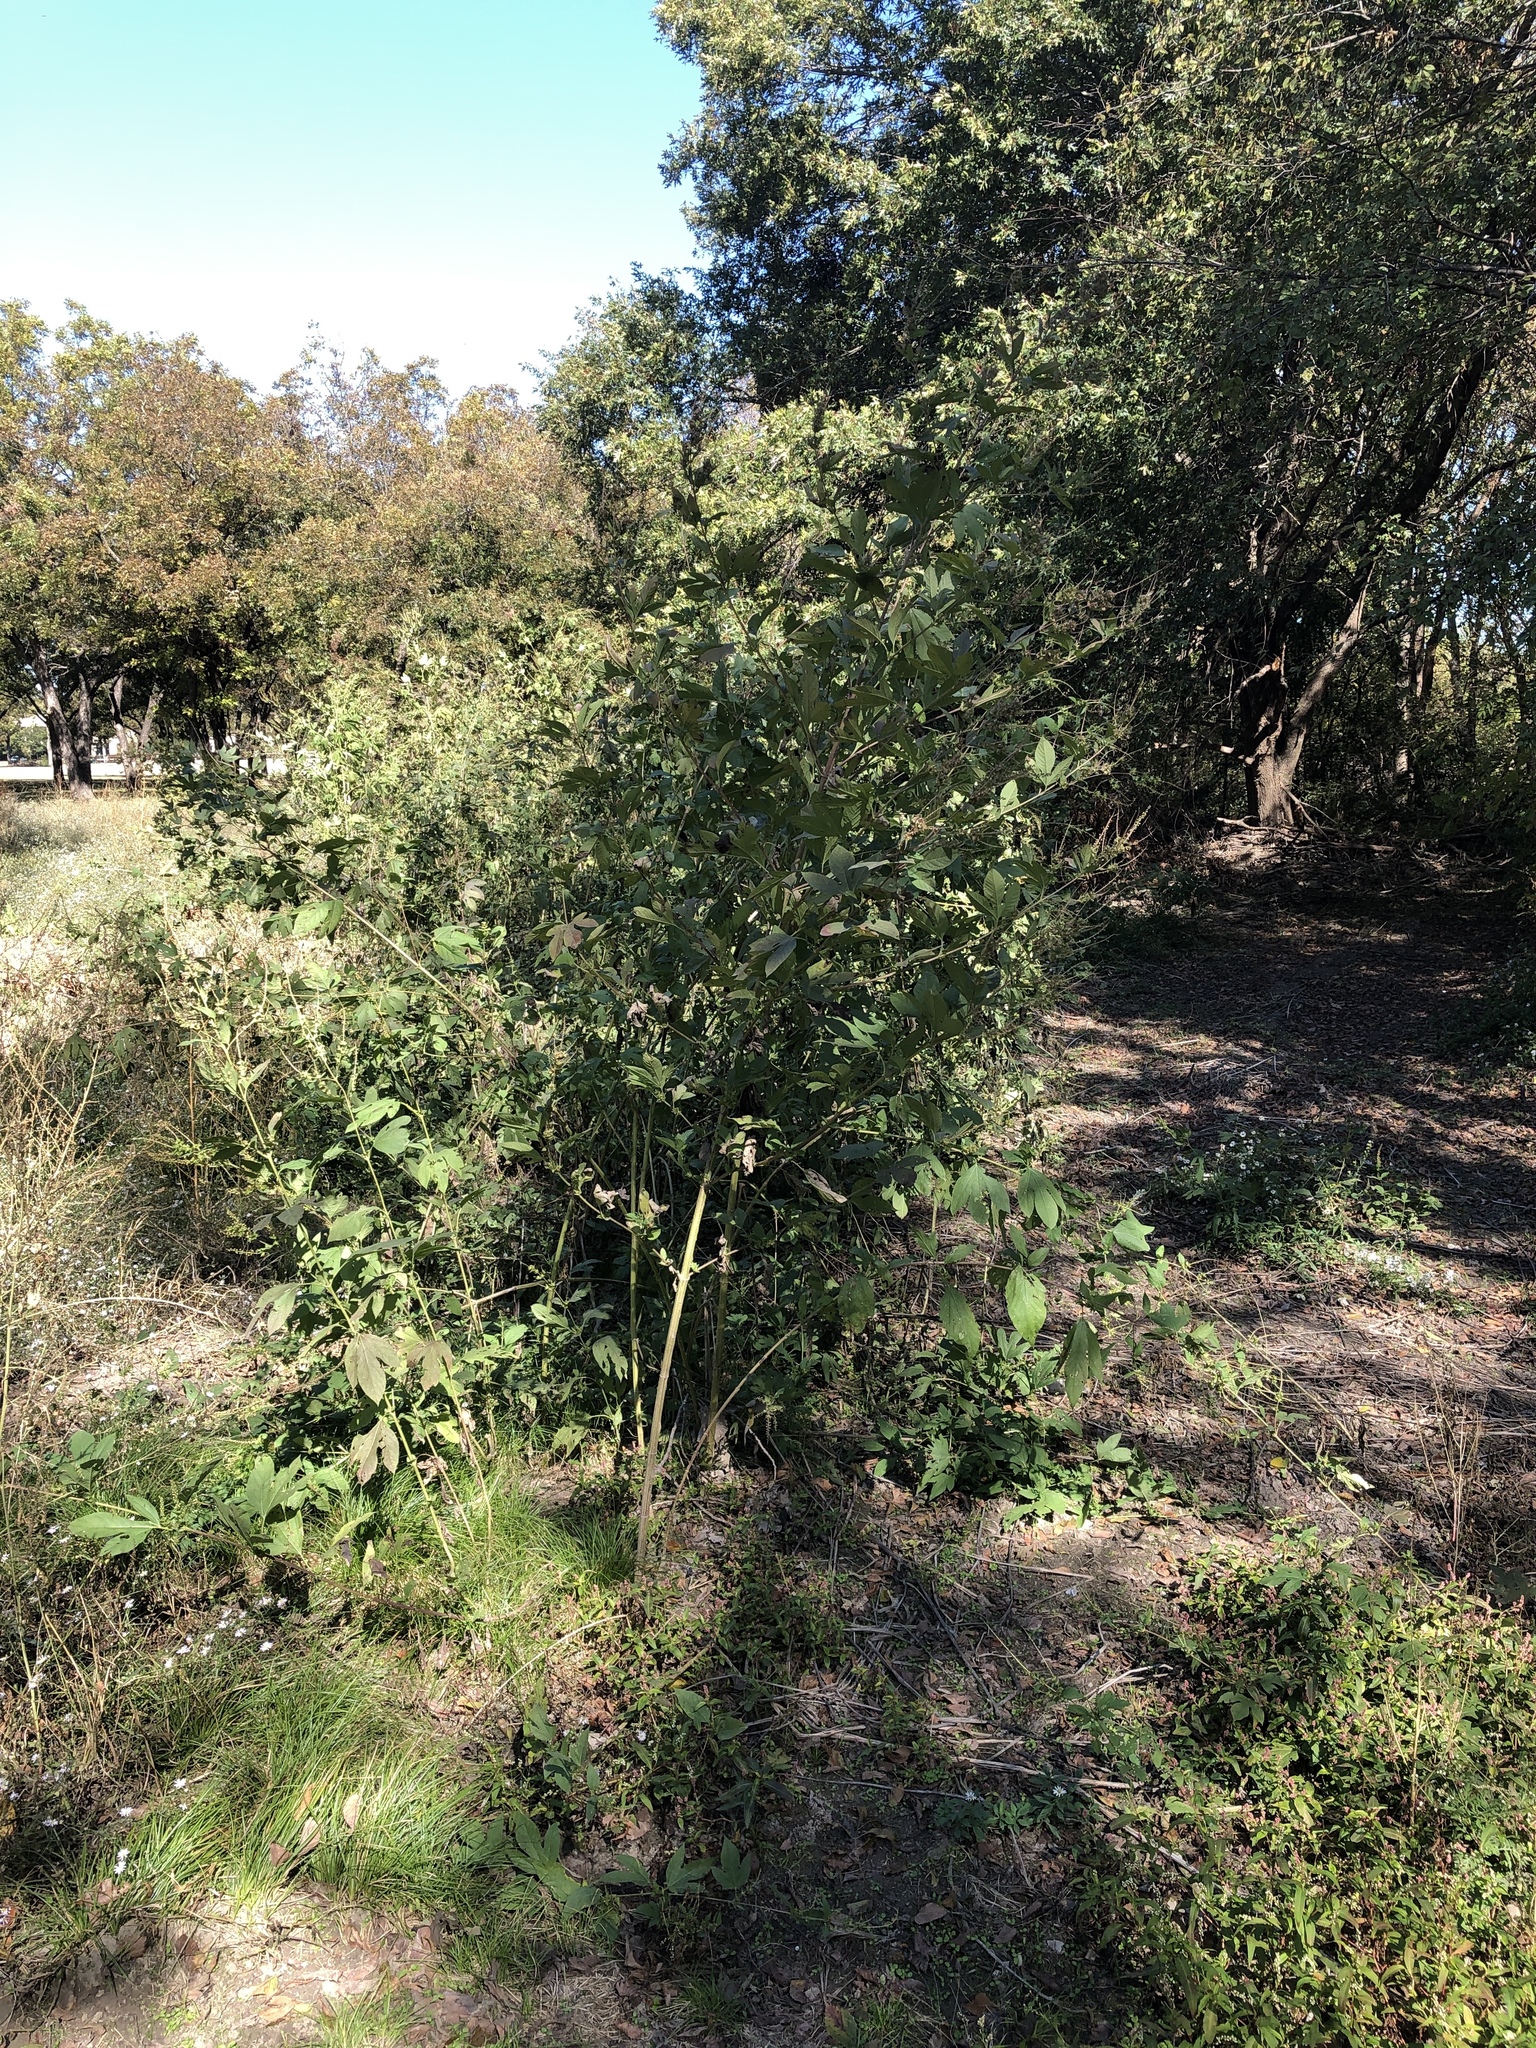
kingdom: Plantae
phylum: Tracheophyta
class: Magnoliopsida
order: Asterales
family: Asteraceae
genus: Ambrosia
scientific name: Ambrosia trifida
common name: Giant ragweed
